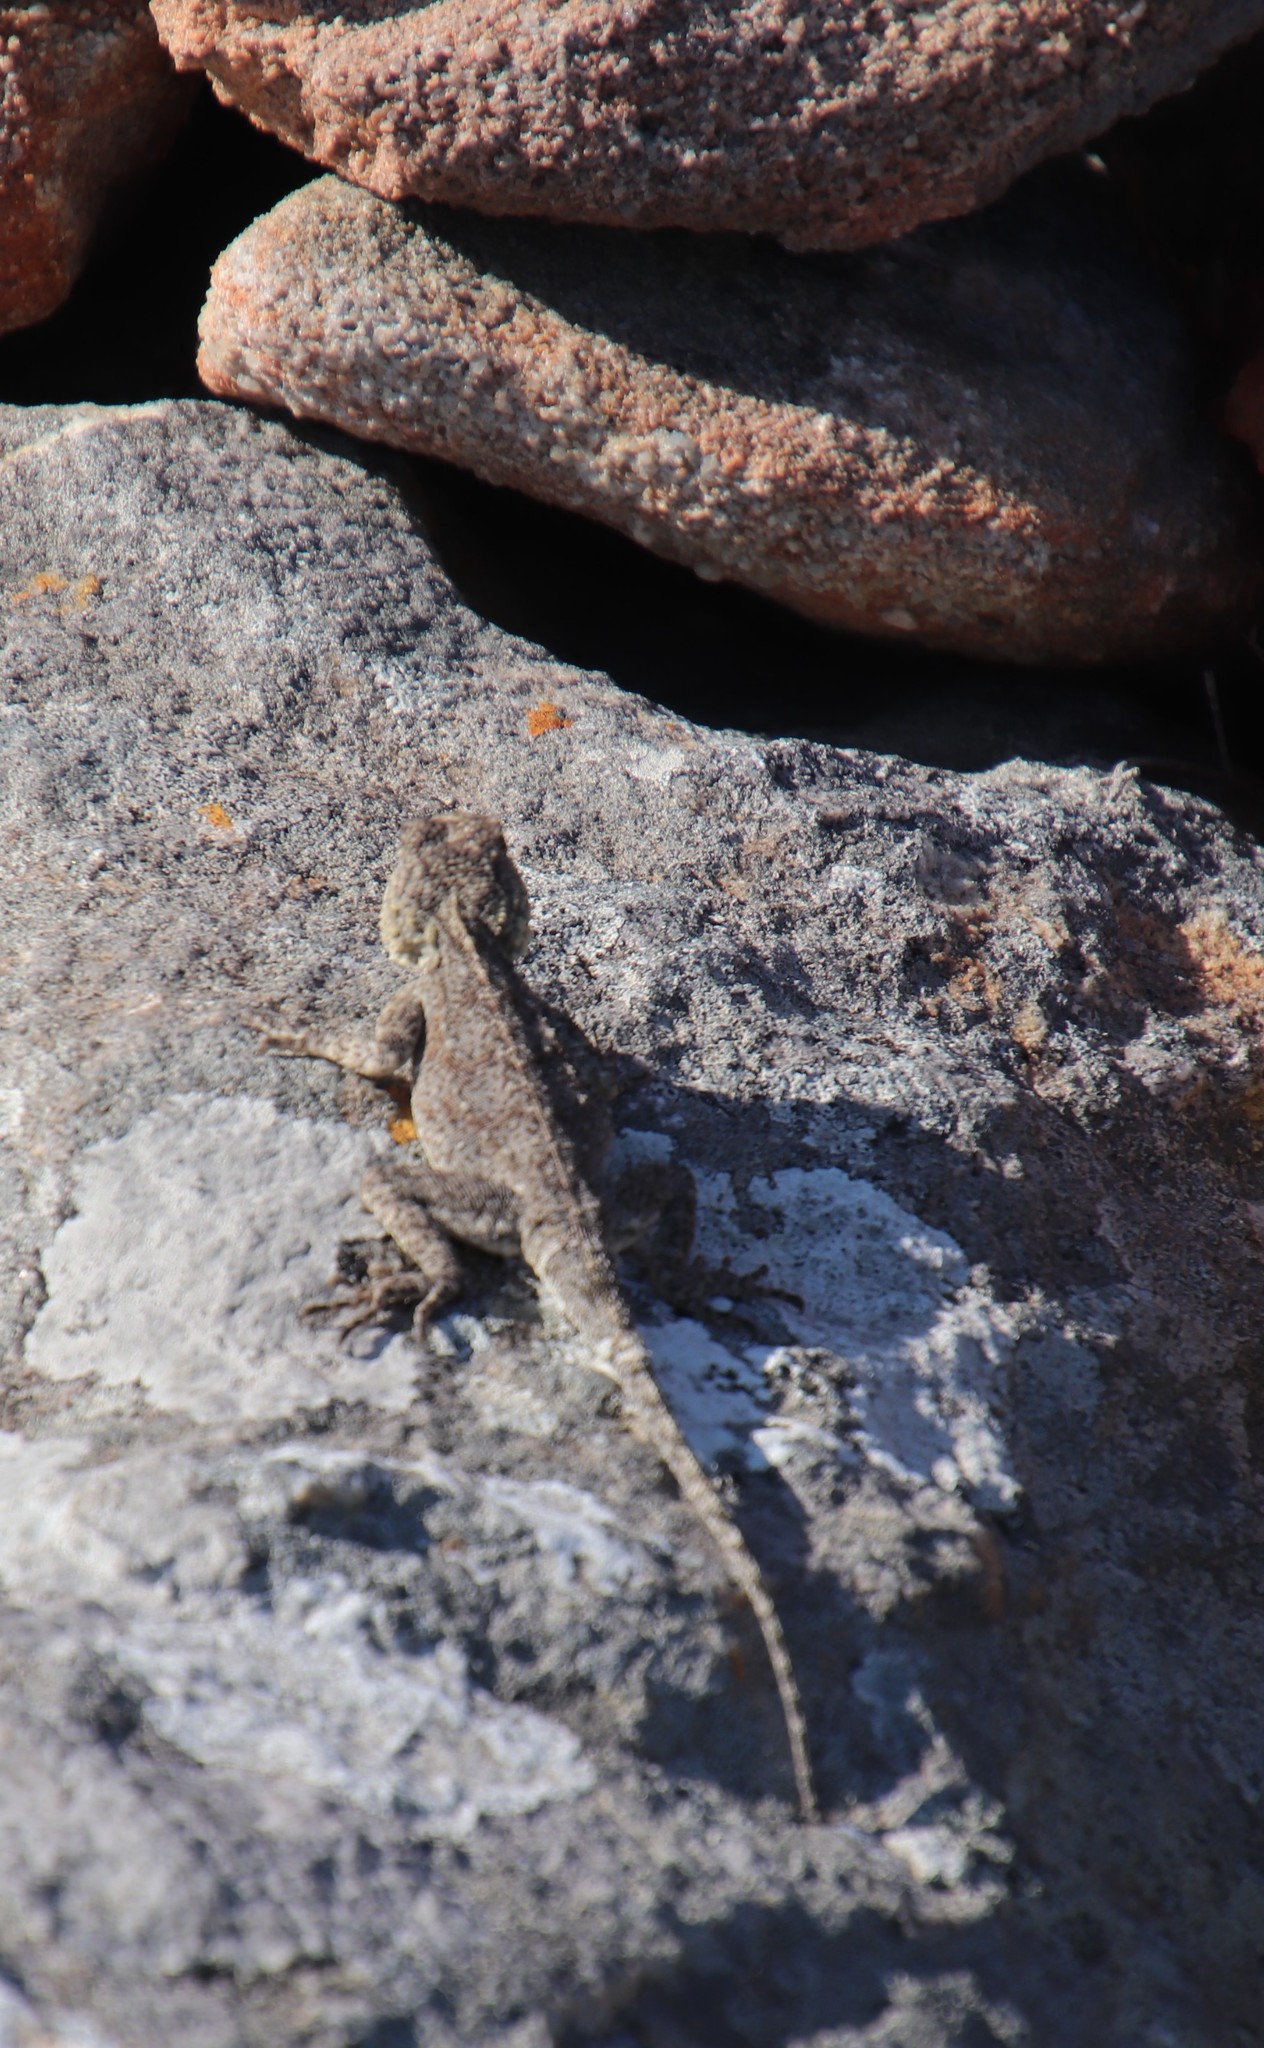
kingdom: Animalia
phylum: Chordata
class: Squamata
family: Agamidae
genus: Agama
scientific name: Agama atra
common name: Southern african rock agama
